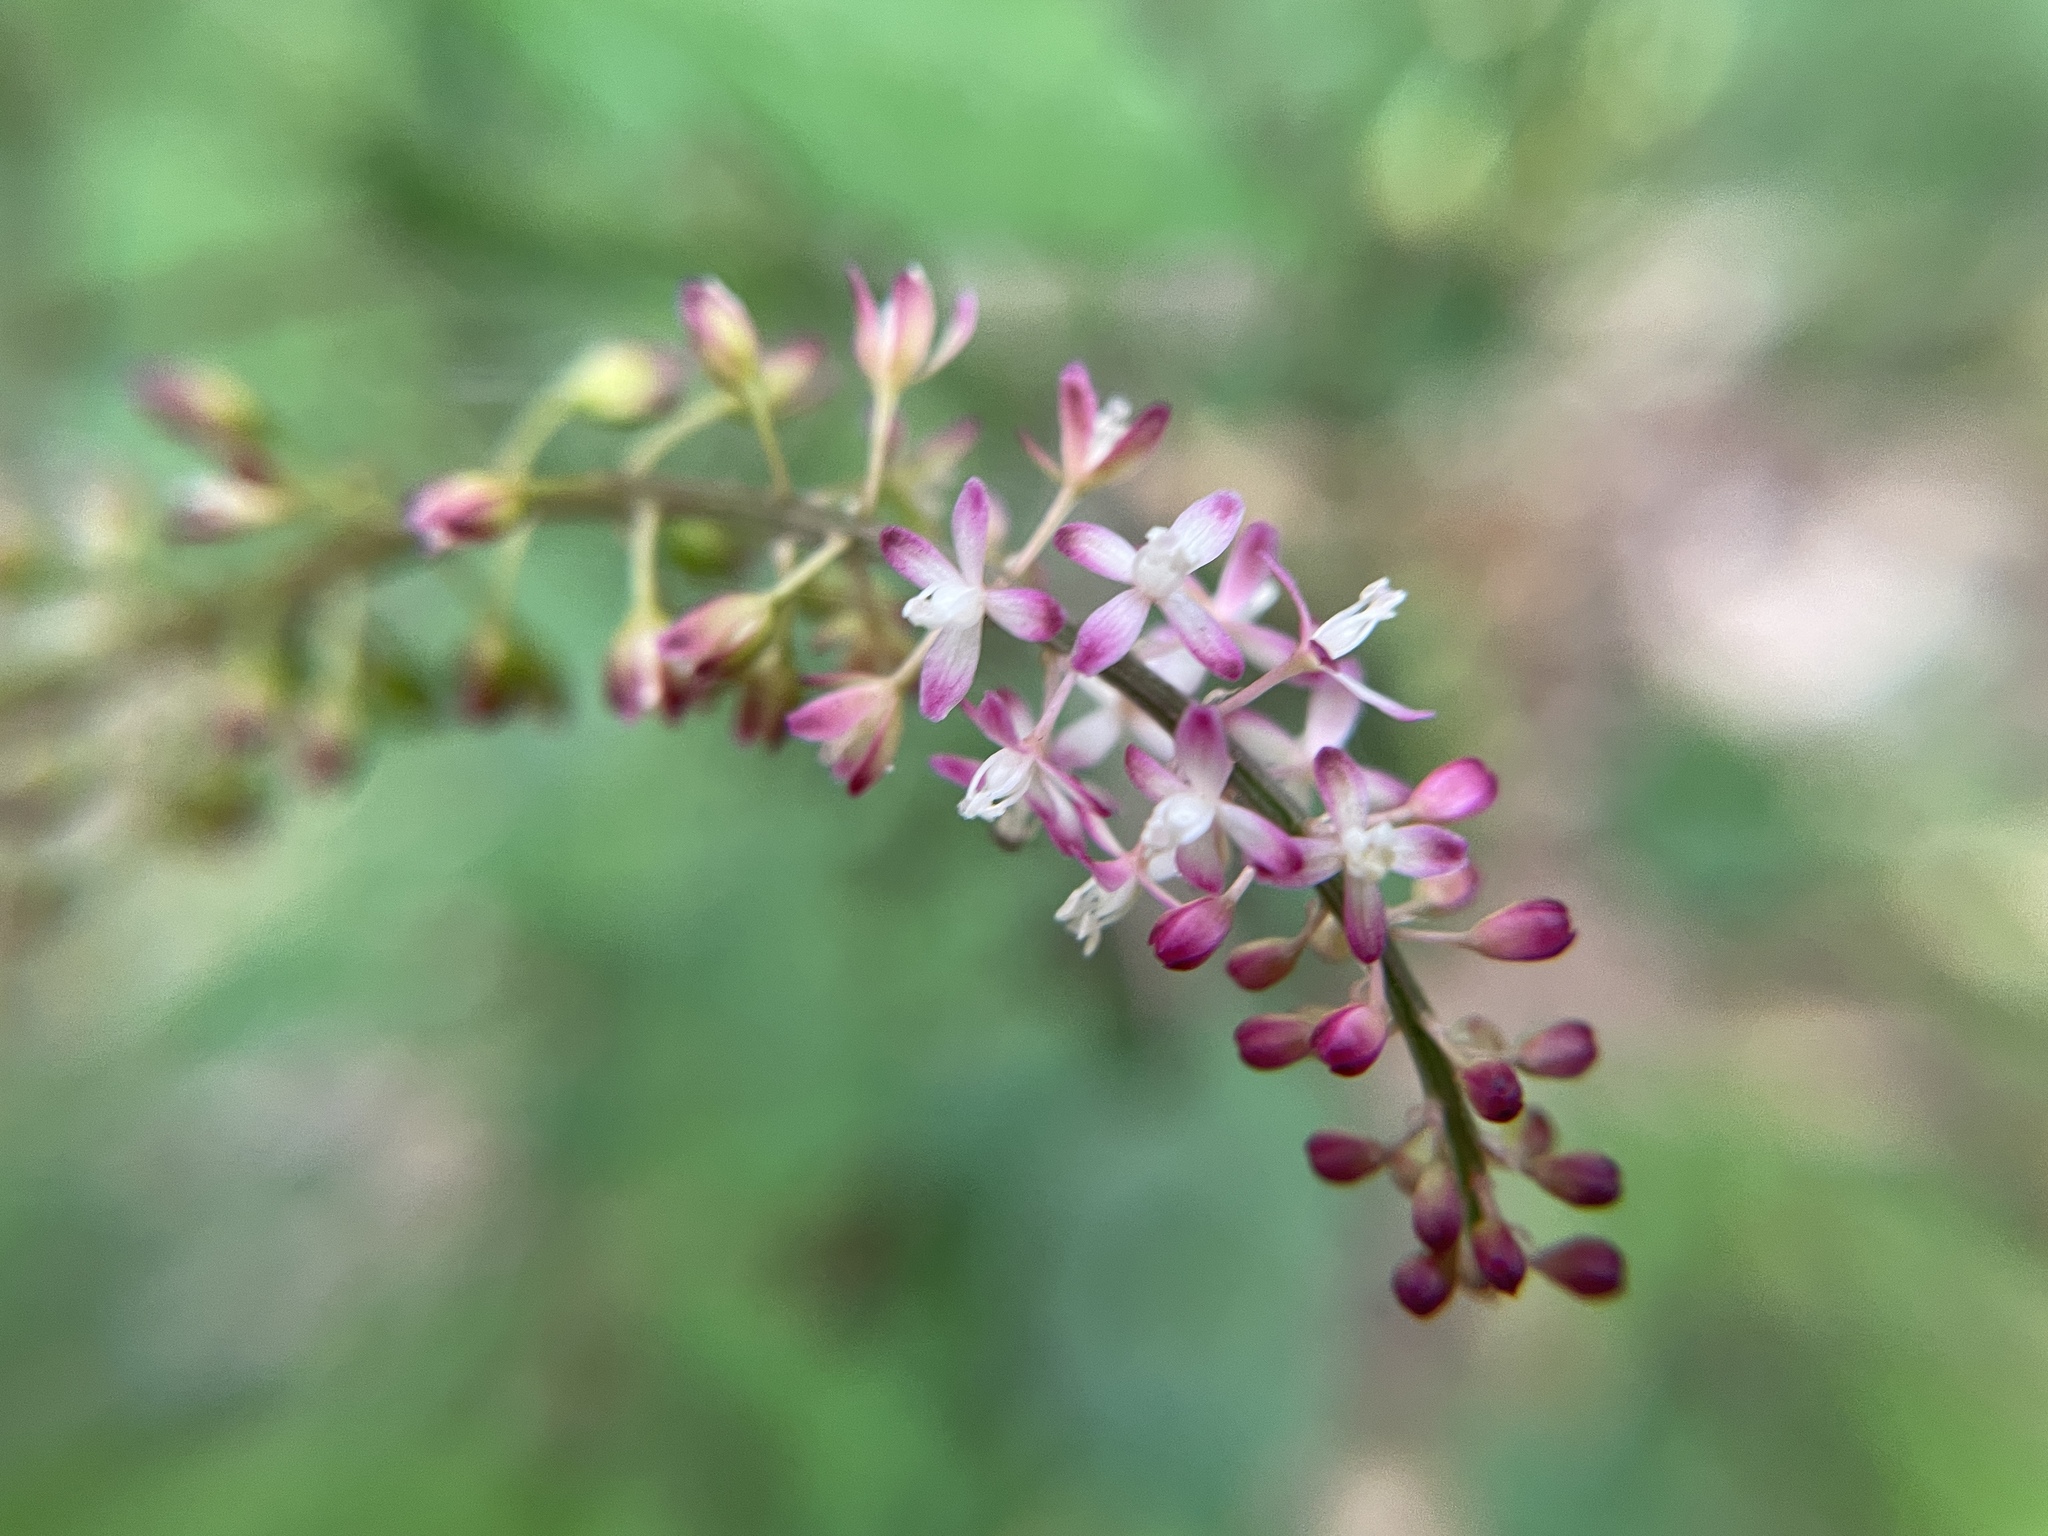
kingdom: Plantae
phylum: Tracheophyta
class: Magnoliopsida
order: Caryophyllales
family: Phytolaccaceae
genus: Rivina
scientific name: Rivina humilis
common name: Rougeplant
